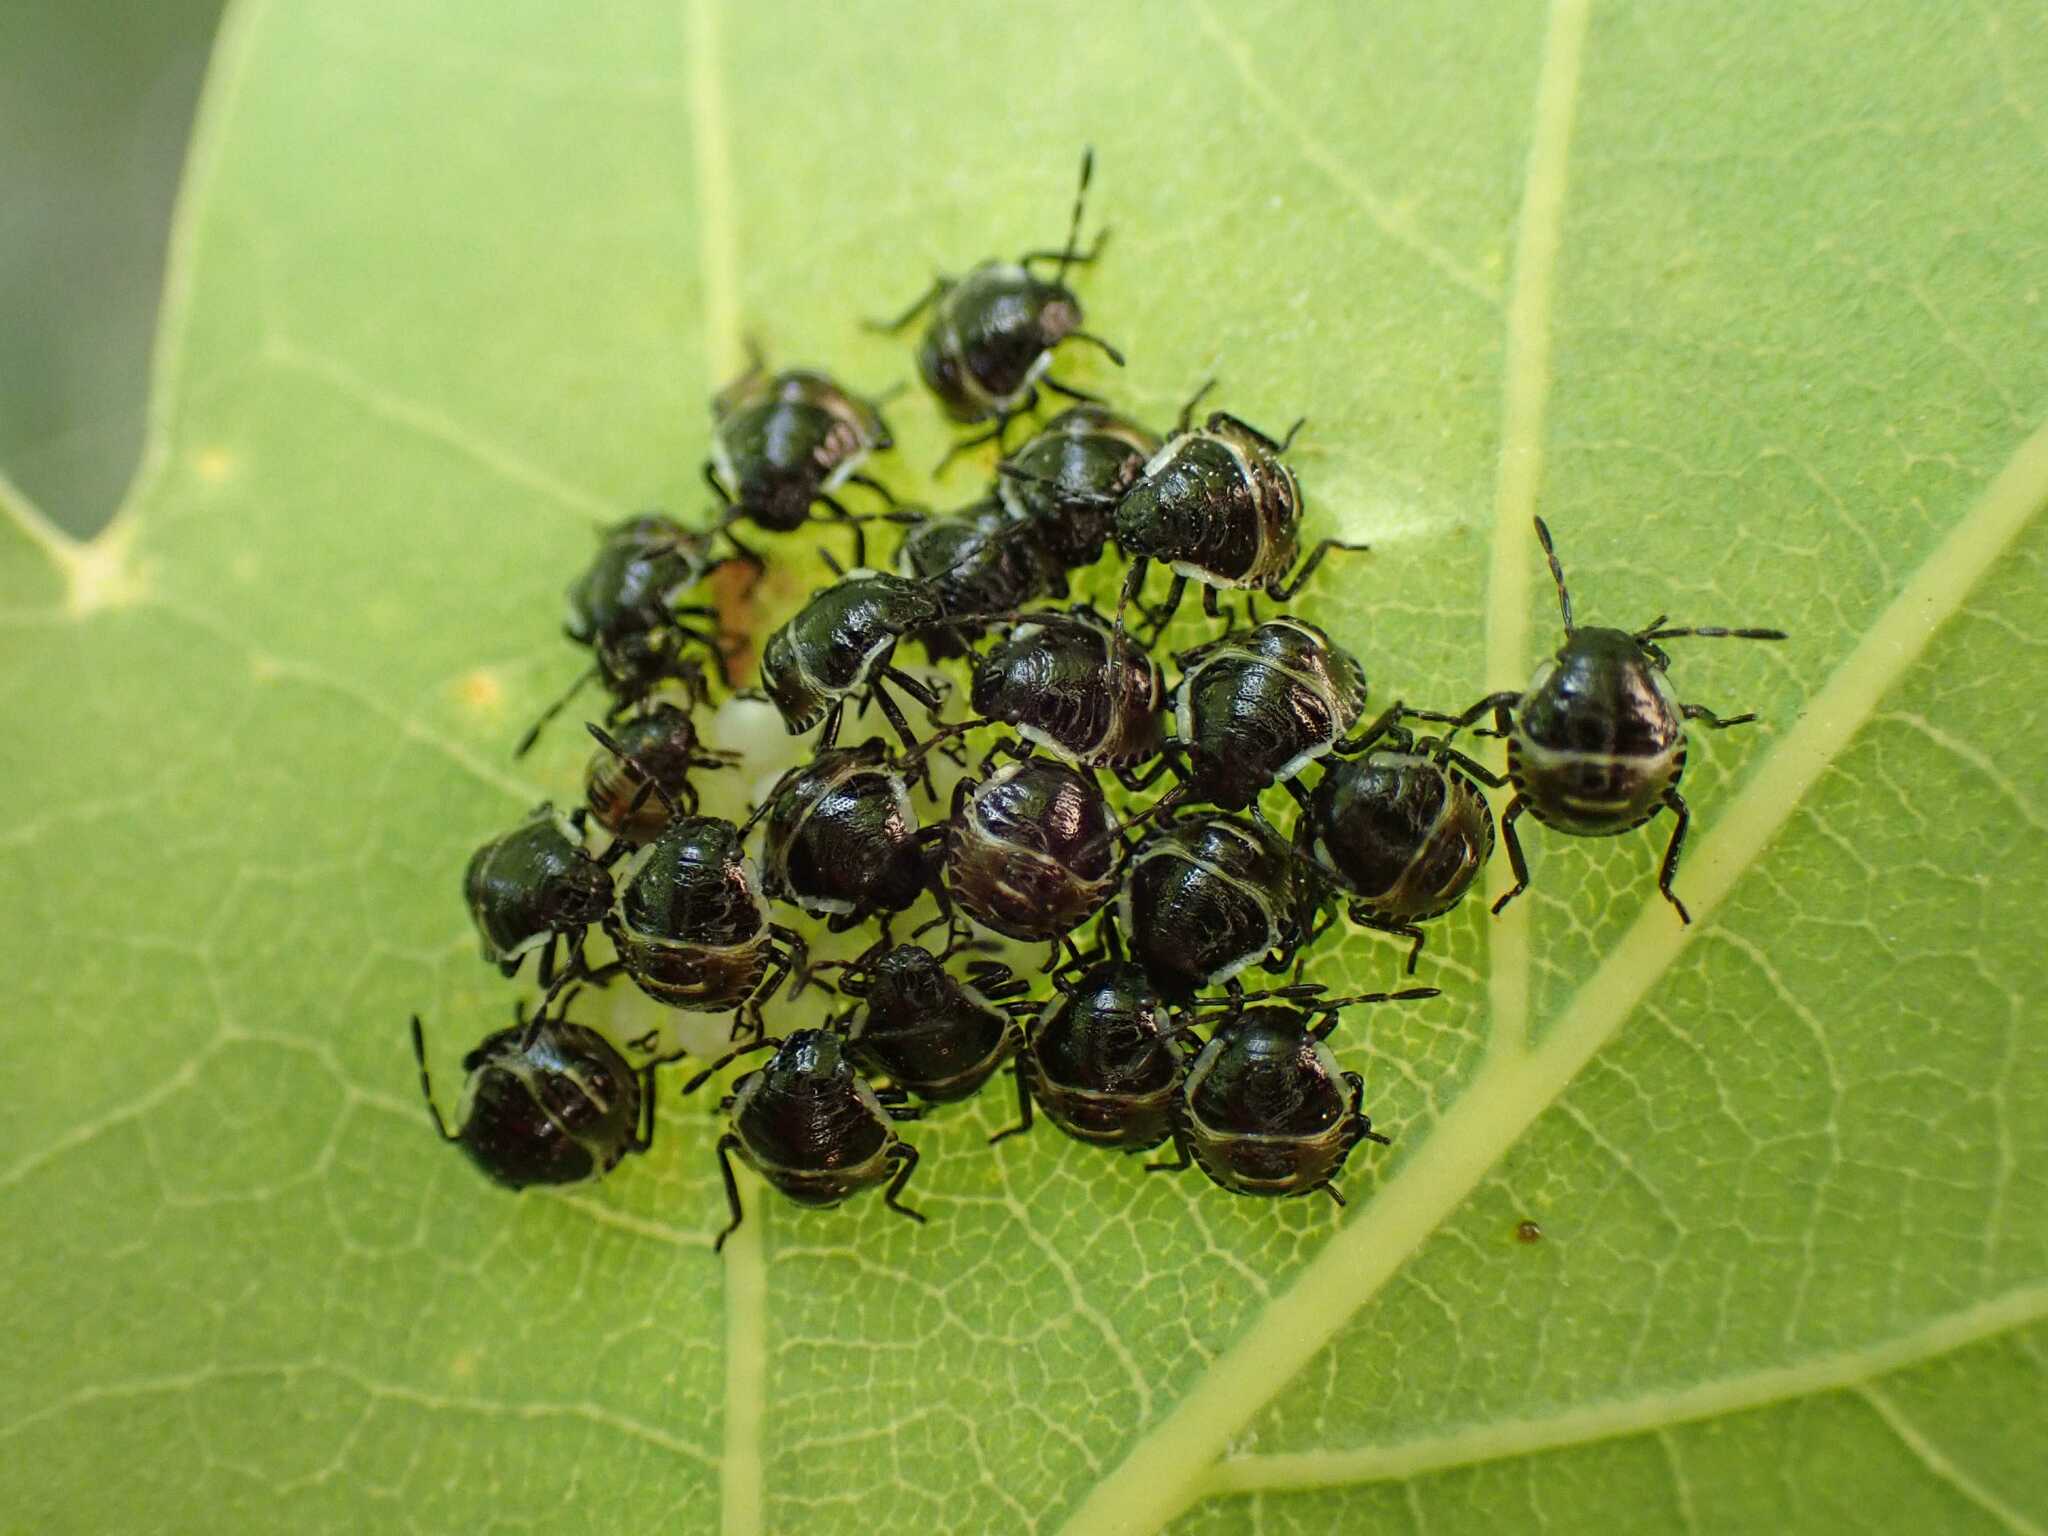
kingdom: Animalia
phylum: Arthropoda
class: Insecta
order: Hemiptera
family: Pentatomidae
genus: Palomena
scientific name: Palomena prasina
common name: Green shieldbug
